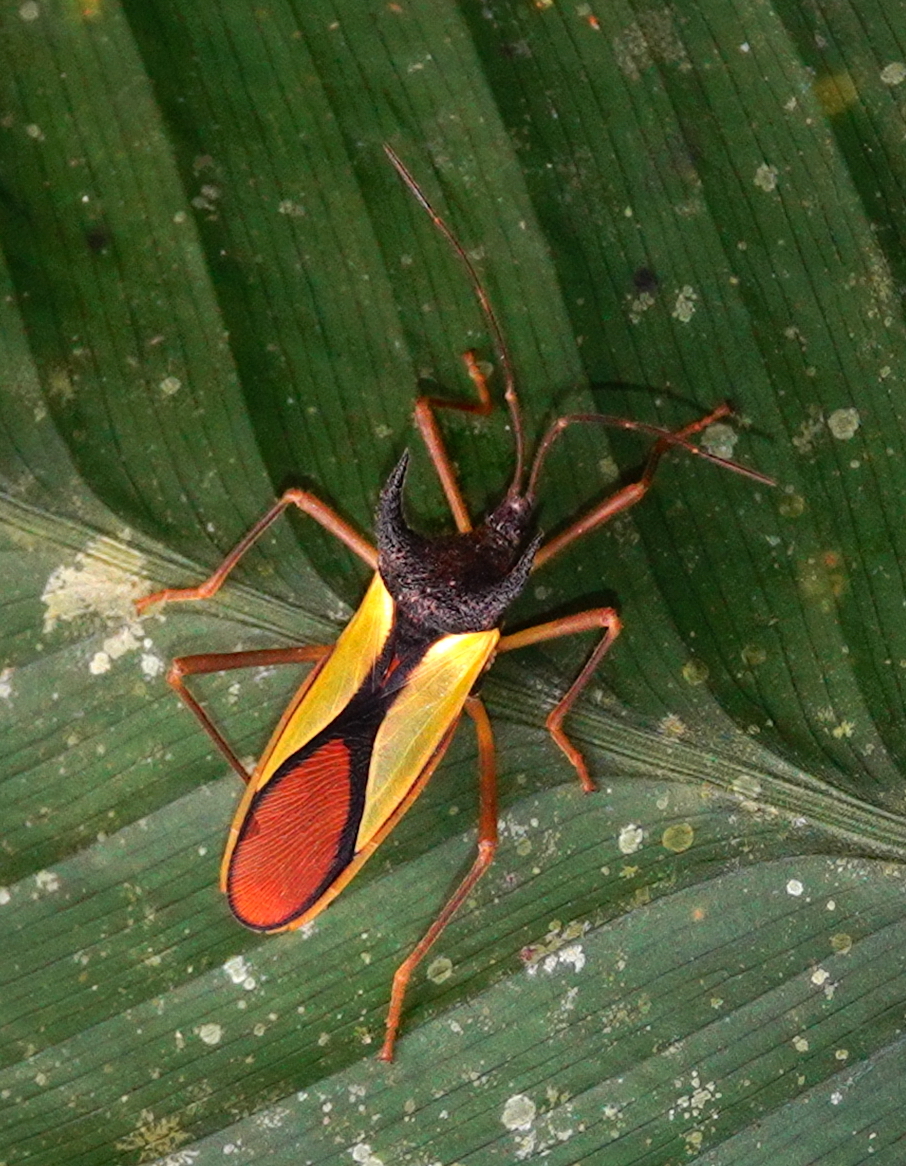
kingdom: Animalia
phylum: Arthropoda
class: Insecta
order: Hemiptera
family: Coreidae
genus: Euagona
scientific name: Euagona diana
